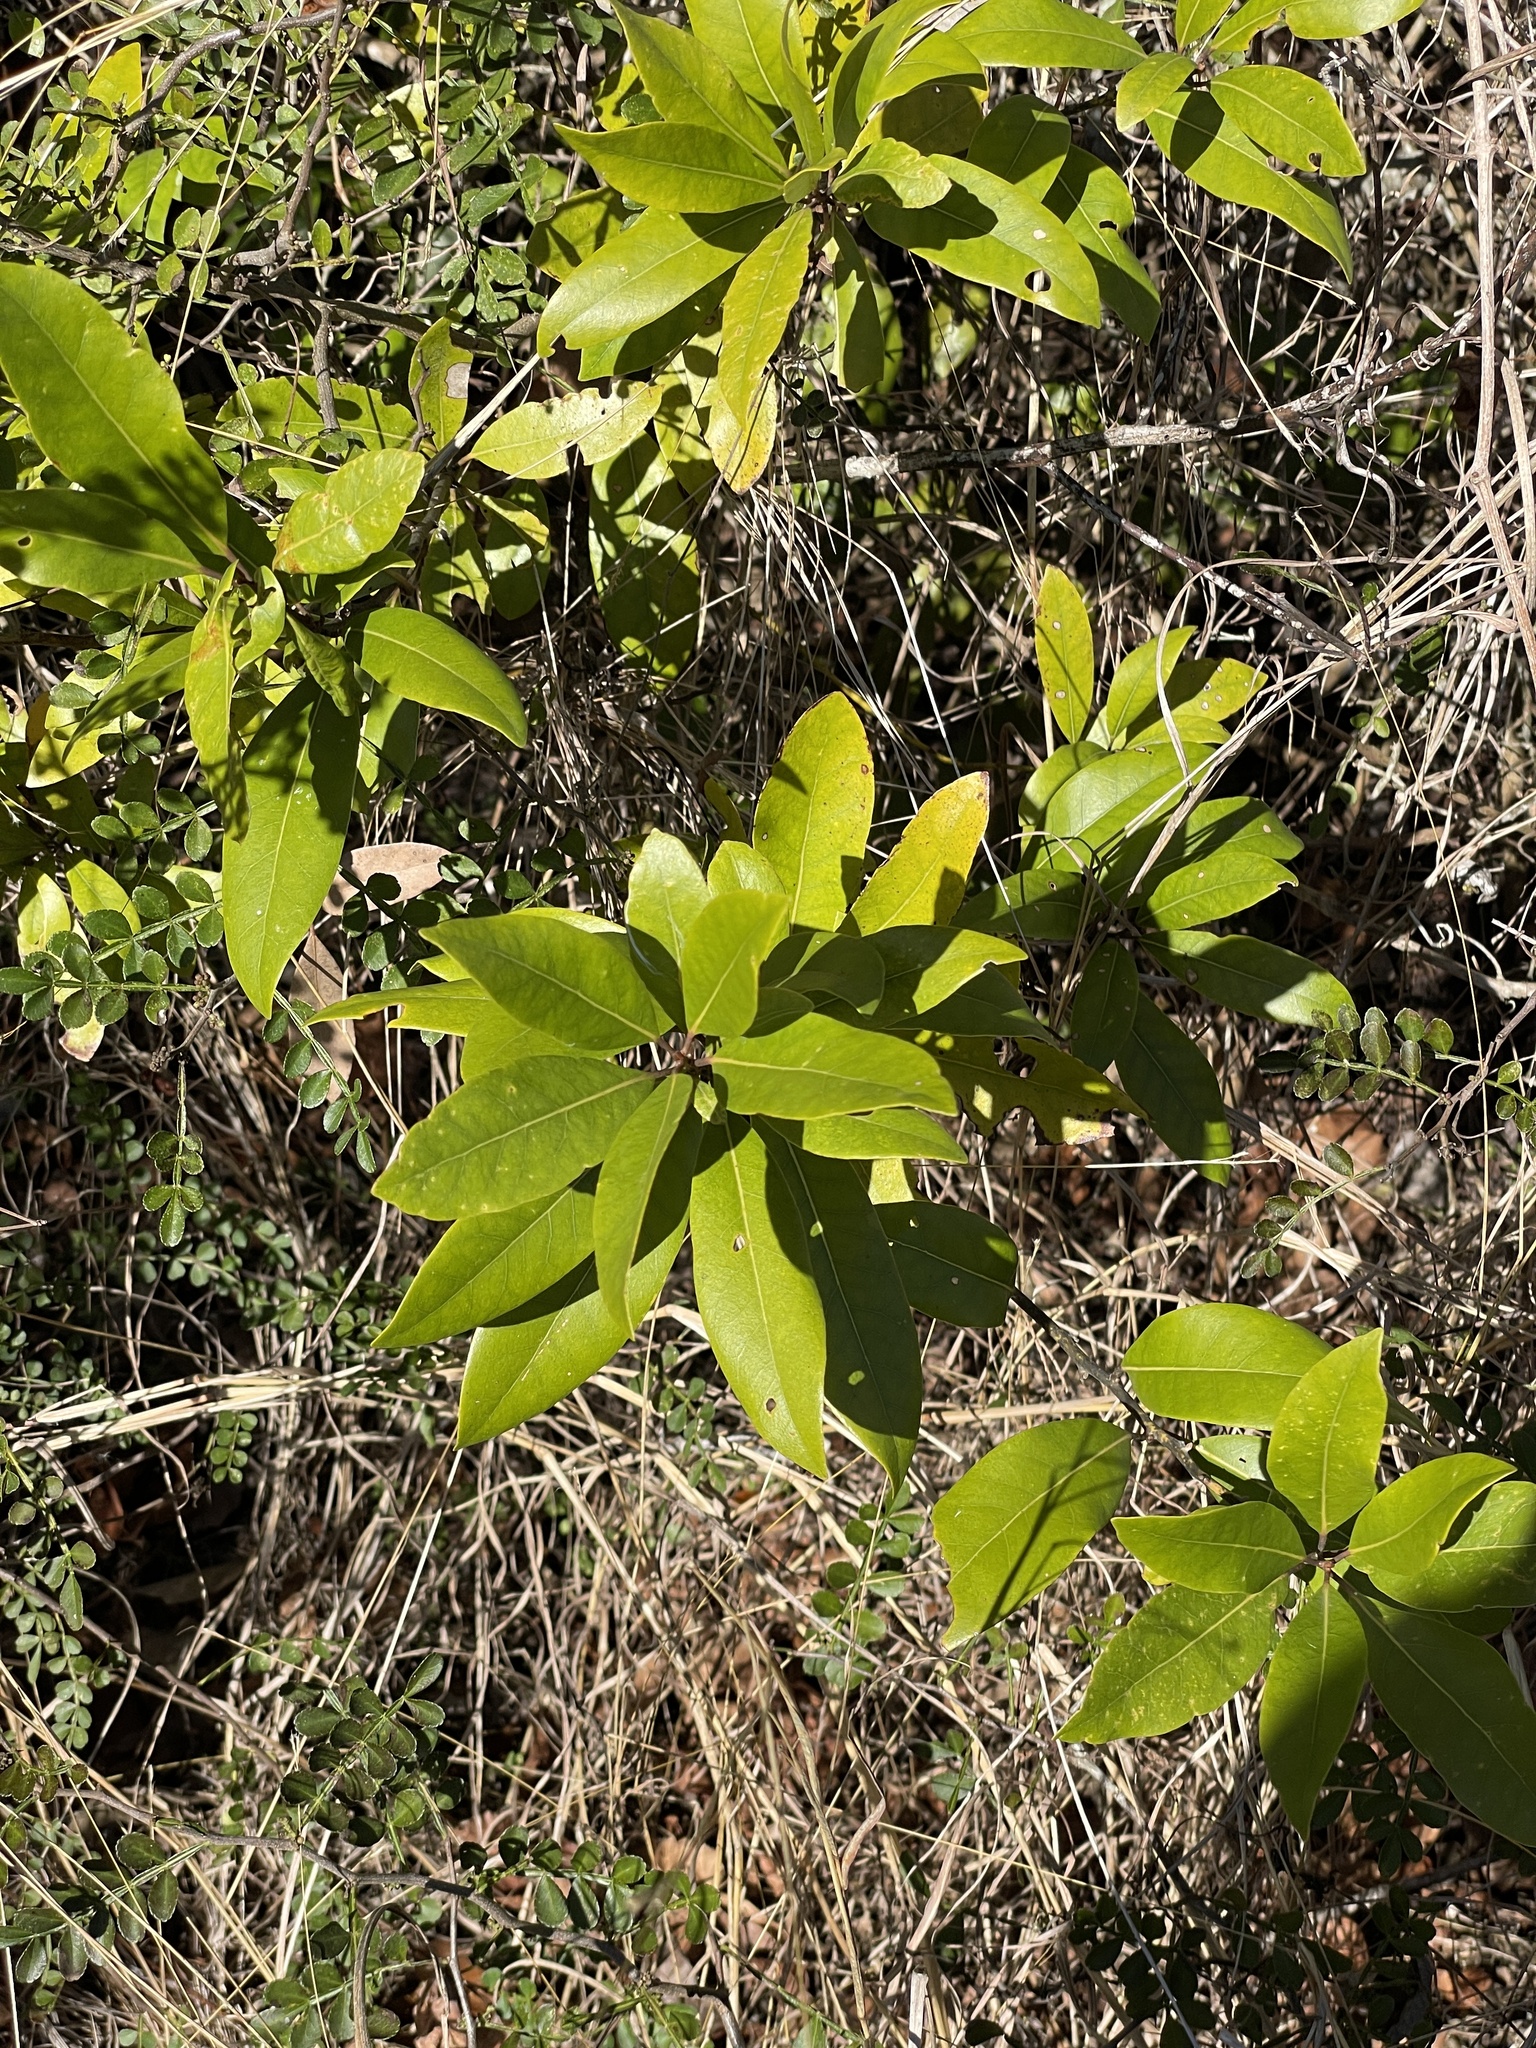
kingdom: Plantae
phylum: Tracheophyta
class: Magnoliopsida
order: Laurales
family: Lauraceae
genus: Persea
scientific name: Persea borbonia
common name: Redbay
